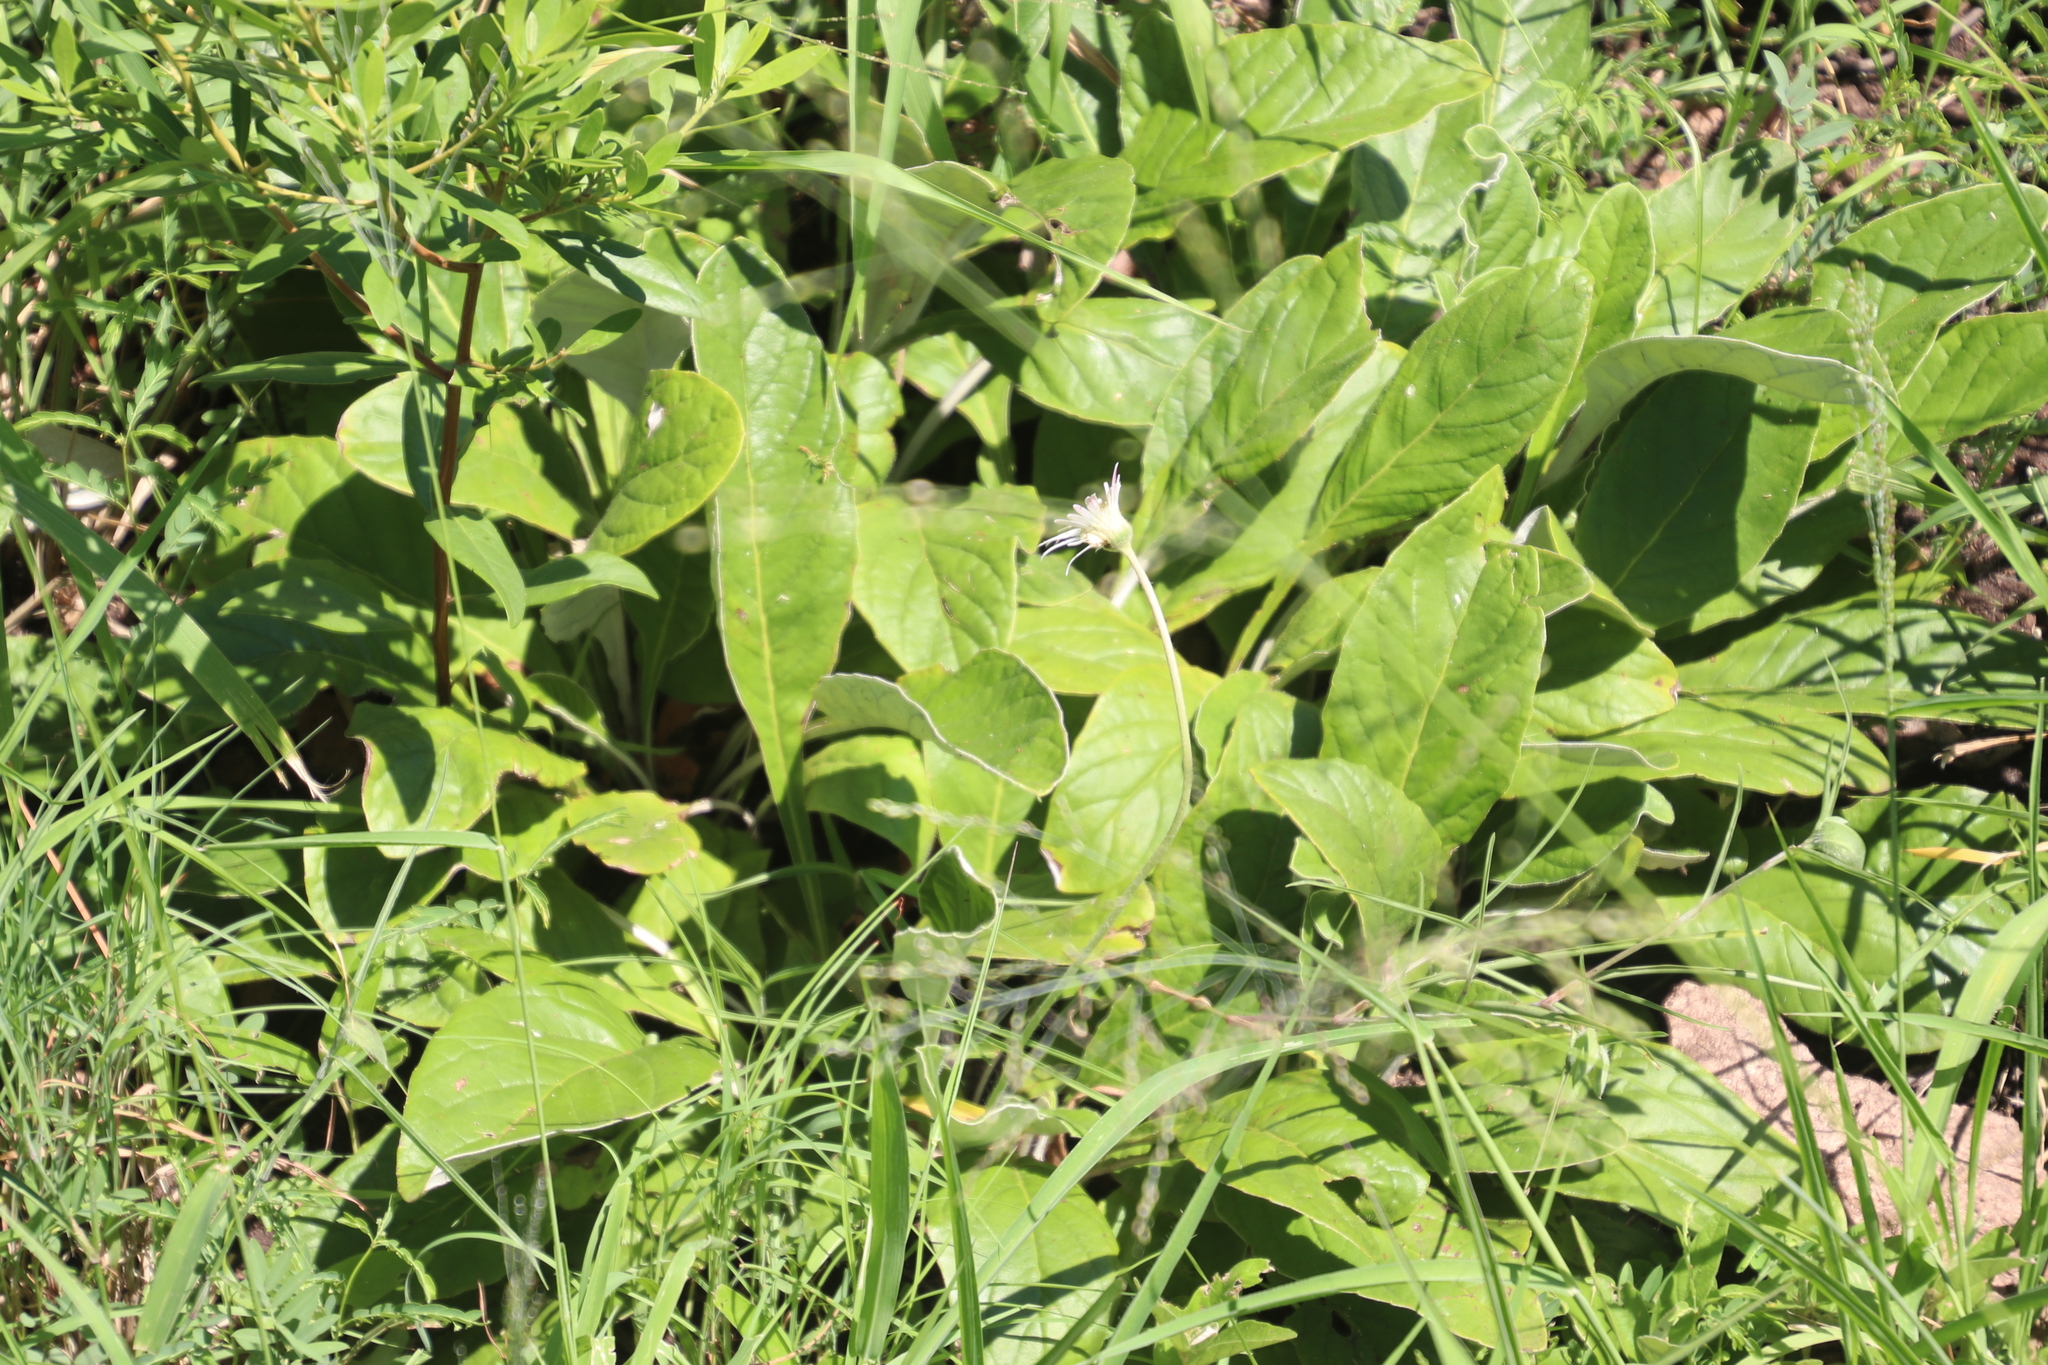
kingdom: Plantae
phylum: Tracheophyta
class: Magnoliopsida
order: Asterales
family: Asteraceae
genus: Gerbera
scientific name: Gerbera ambigua
